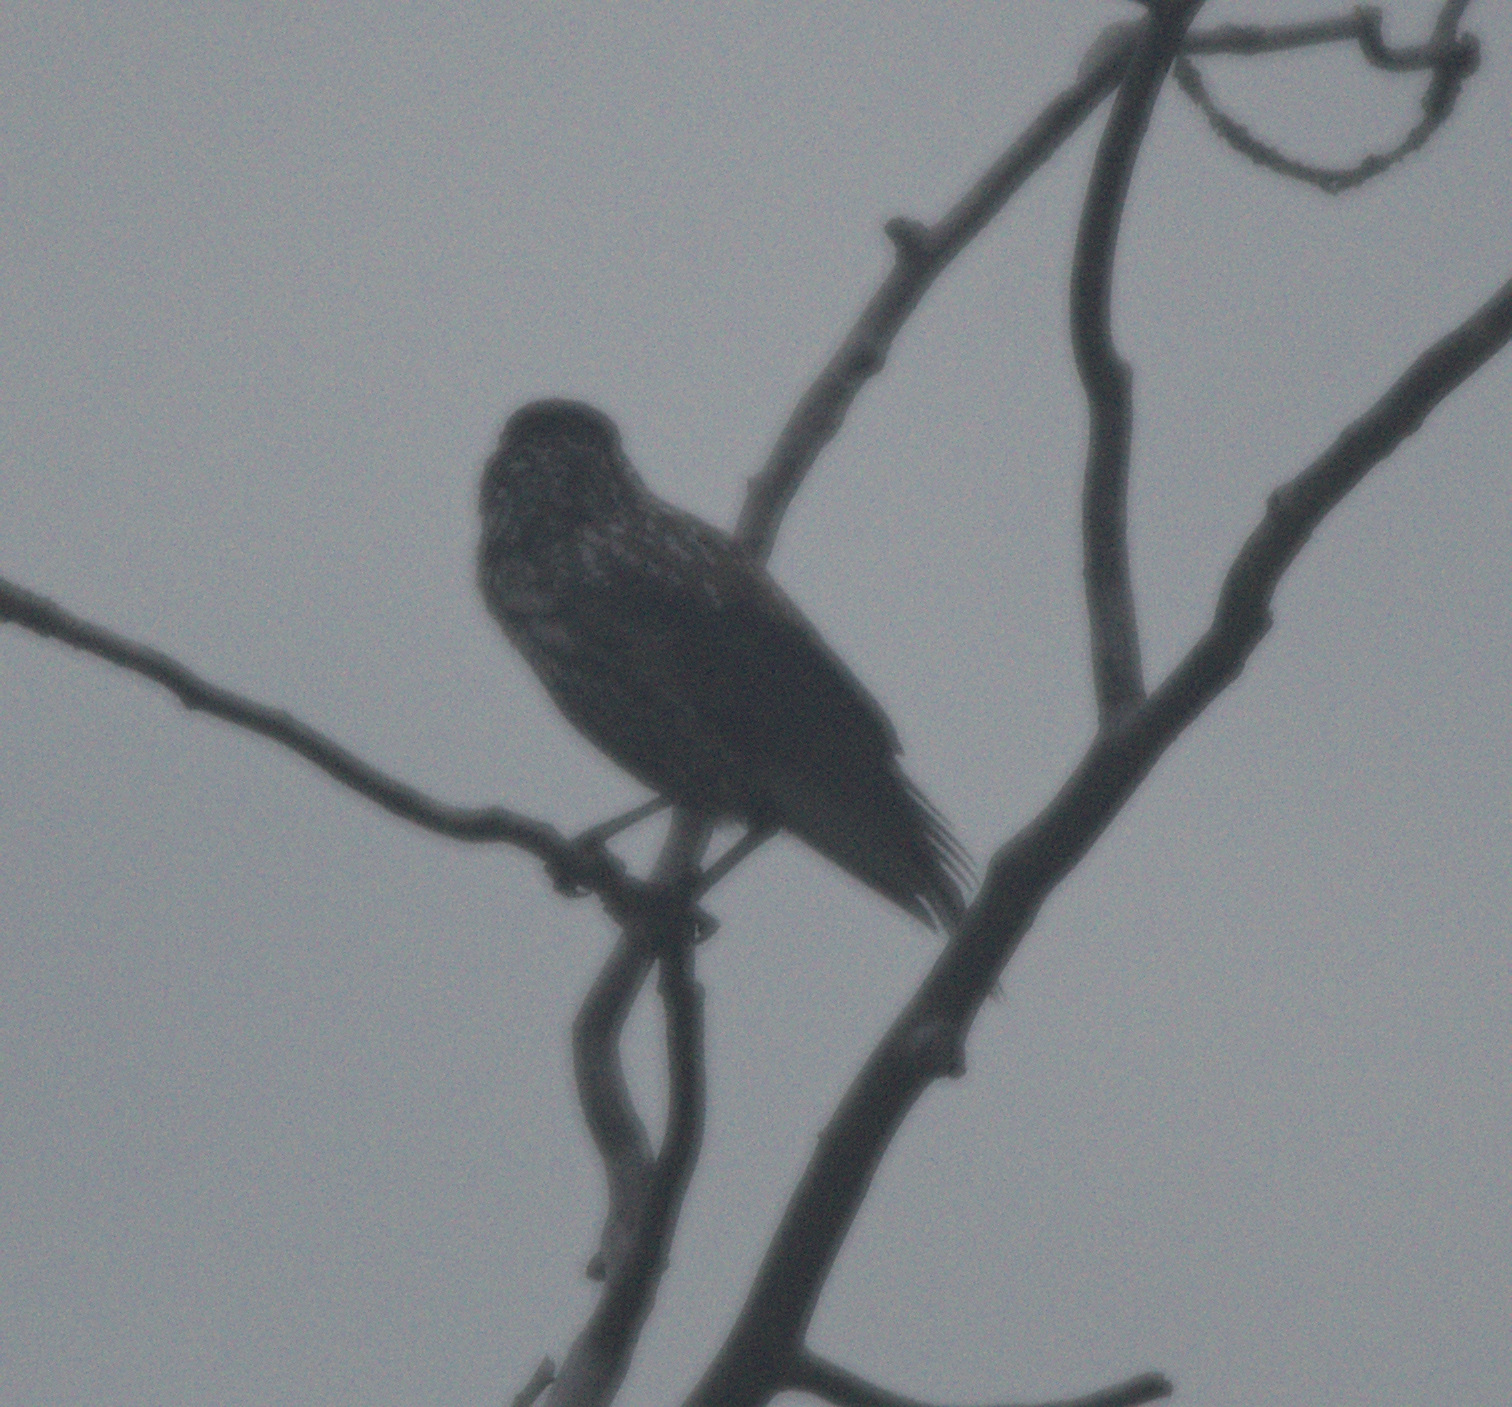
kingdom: Animalia
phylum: Chordata
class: Aves
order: Passeriformes
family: Corvidae
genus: Nucifraga
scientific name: Nucifraga caryocatactes
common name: Spotted nutcracker
